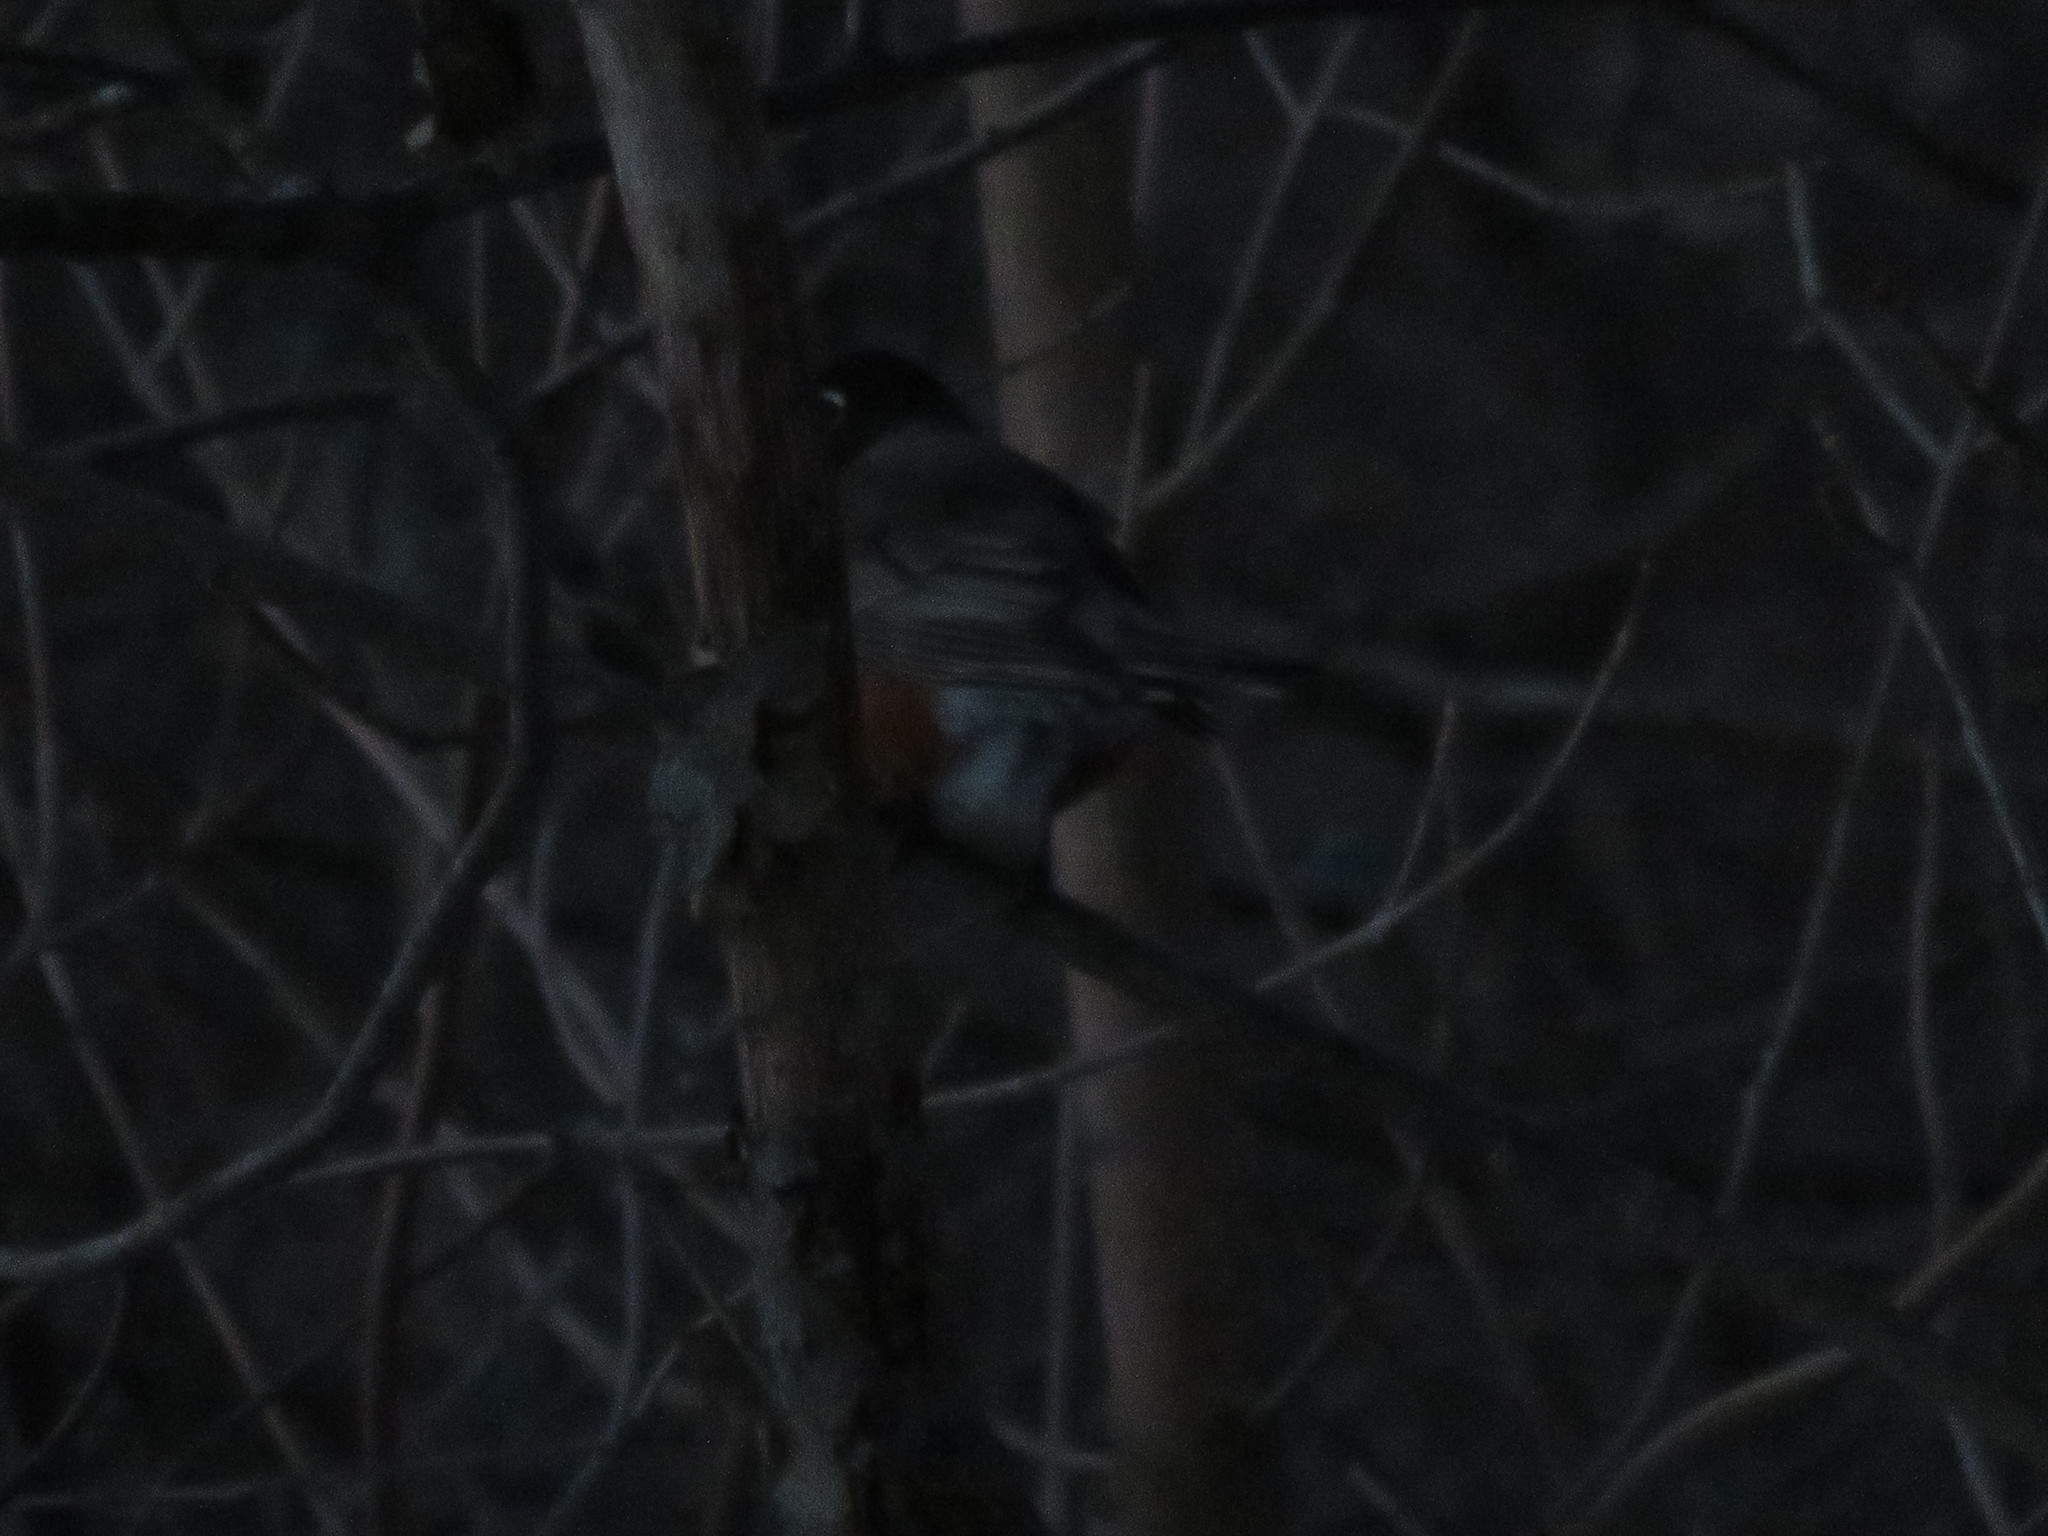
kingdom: Animalia
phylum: Chordata
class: Aves
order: Passeriformes
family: Turdidae
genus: Turdus
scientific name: Turdus migratorius
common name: American robin
